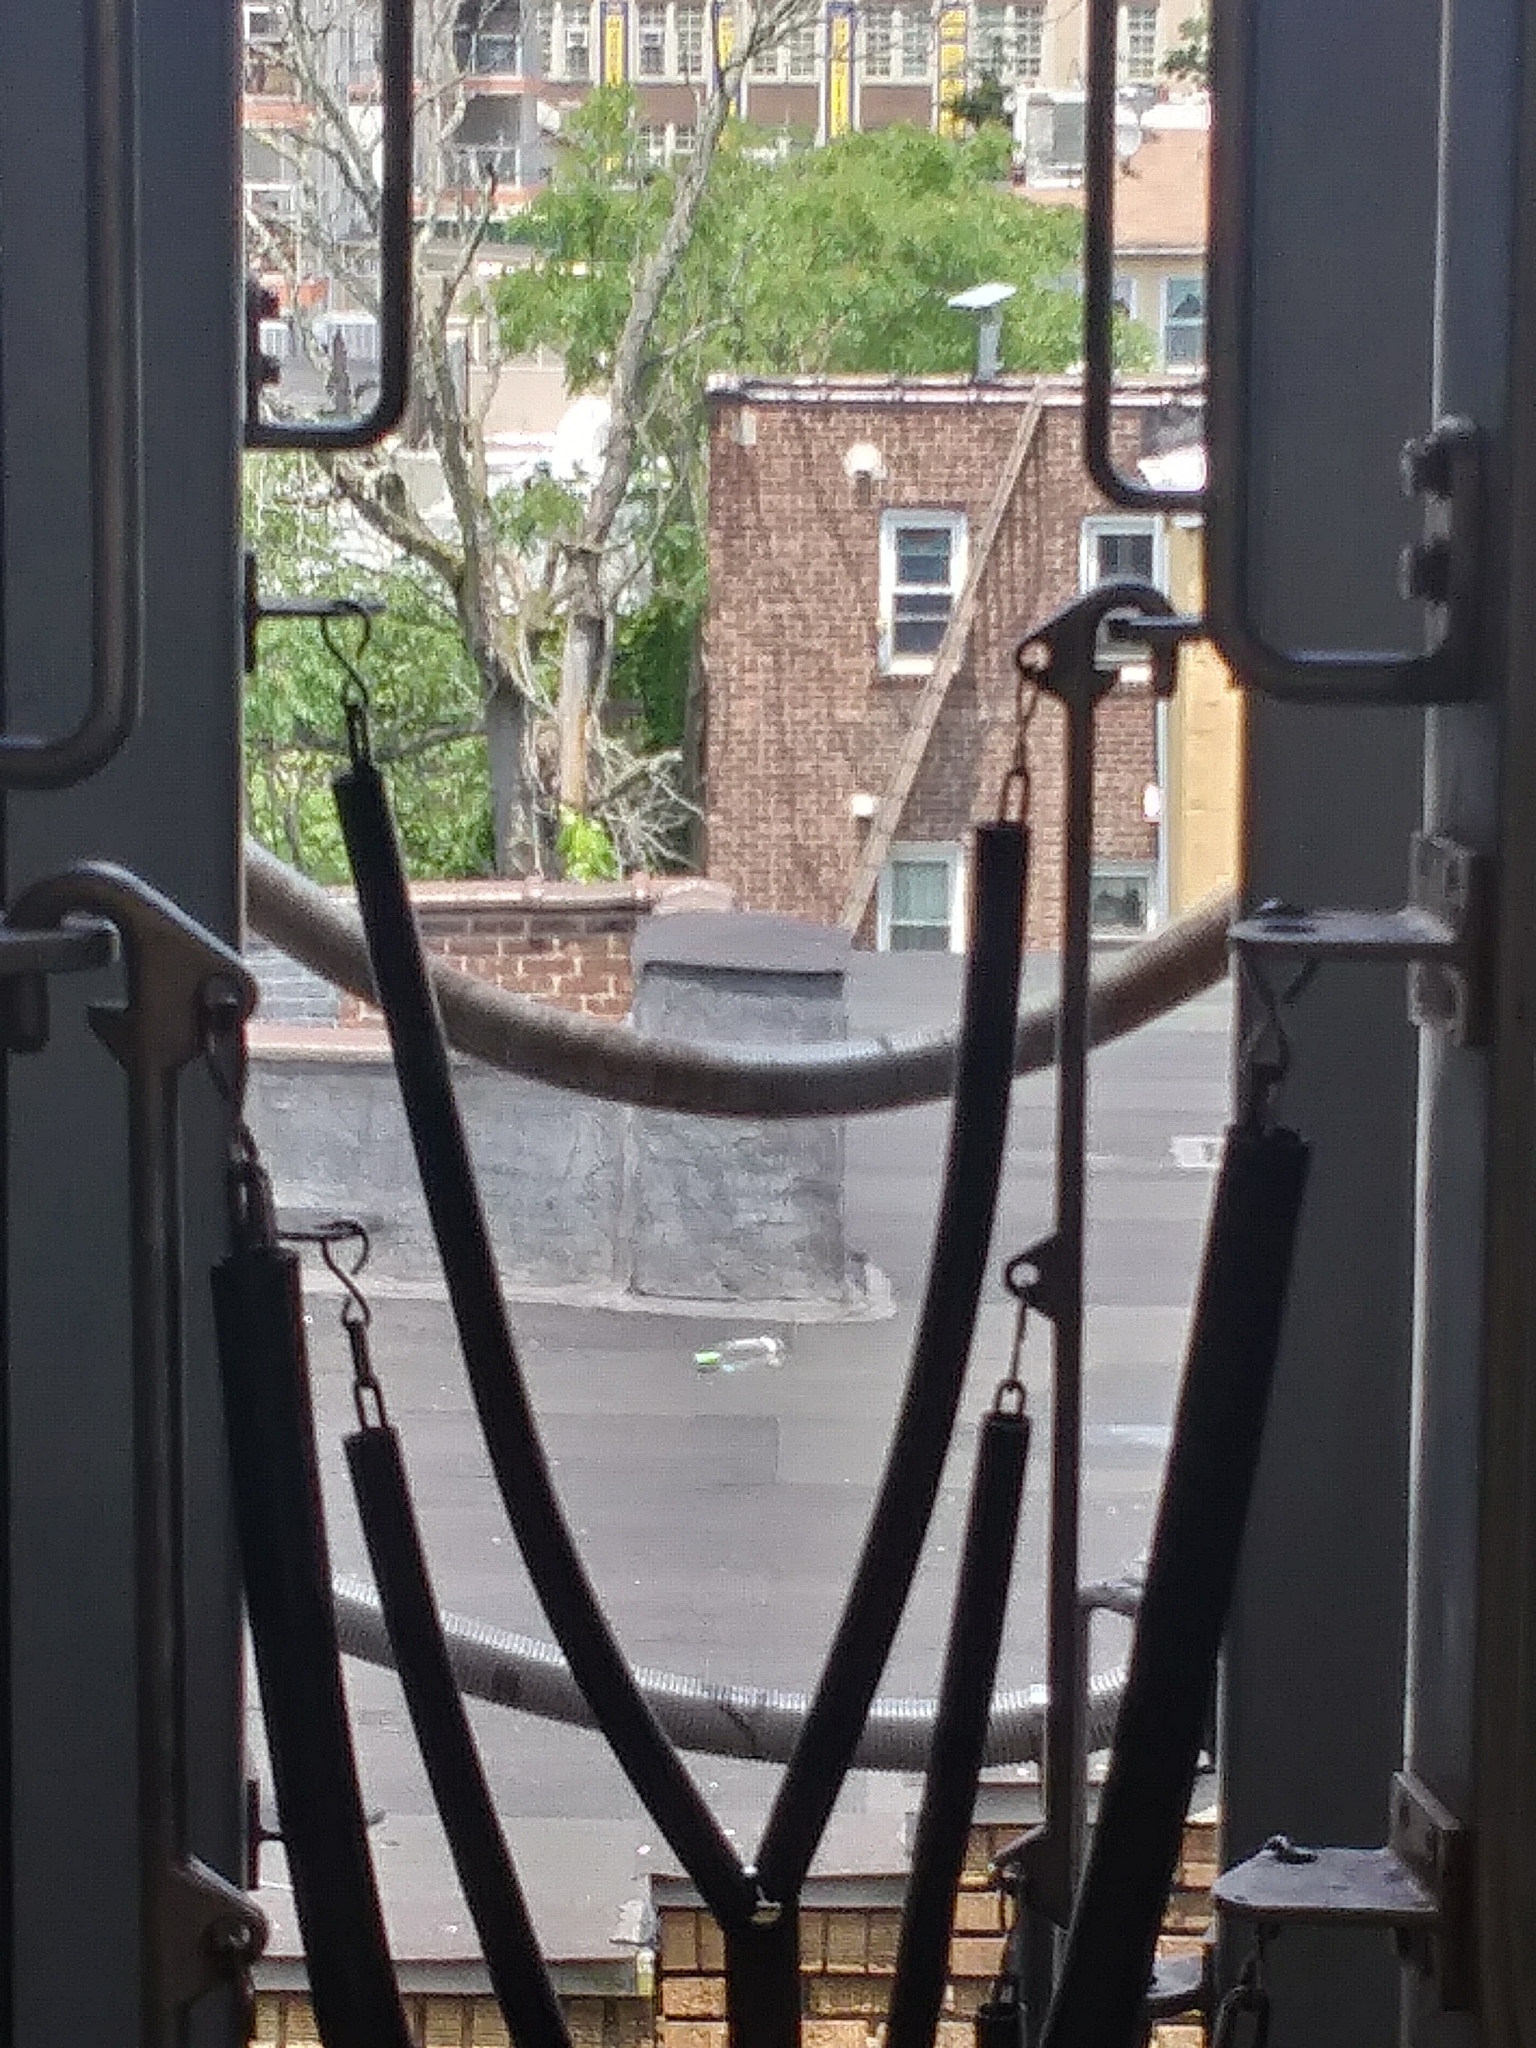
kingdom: Plantae
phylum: Tracheophyta
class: Magnoliopsida
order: Sapindales
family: Simaroubaceae
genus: Ailanthus
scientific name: Ailanthus altissima
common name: Tree-of-heaven
